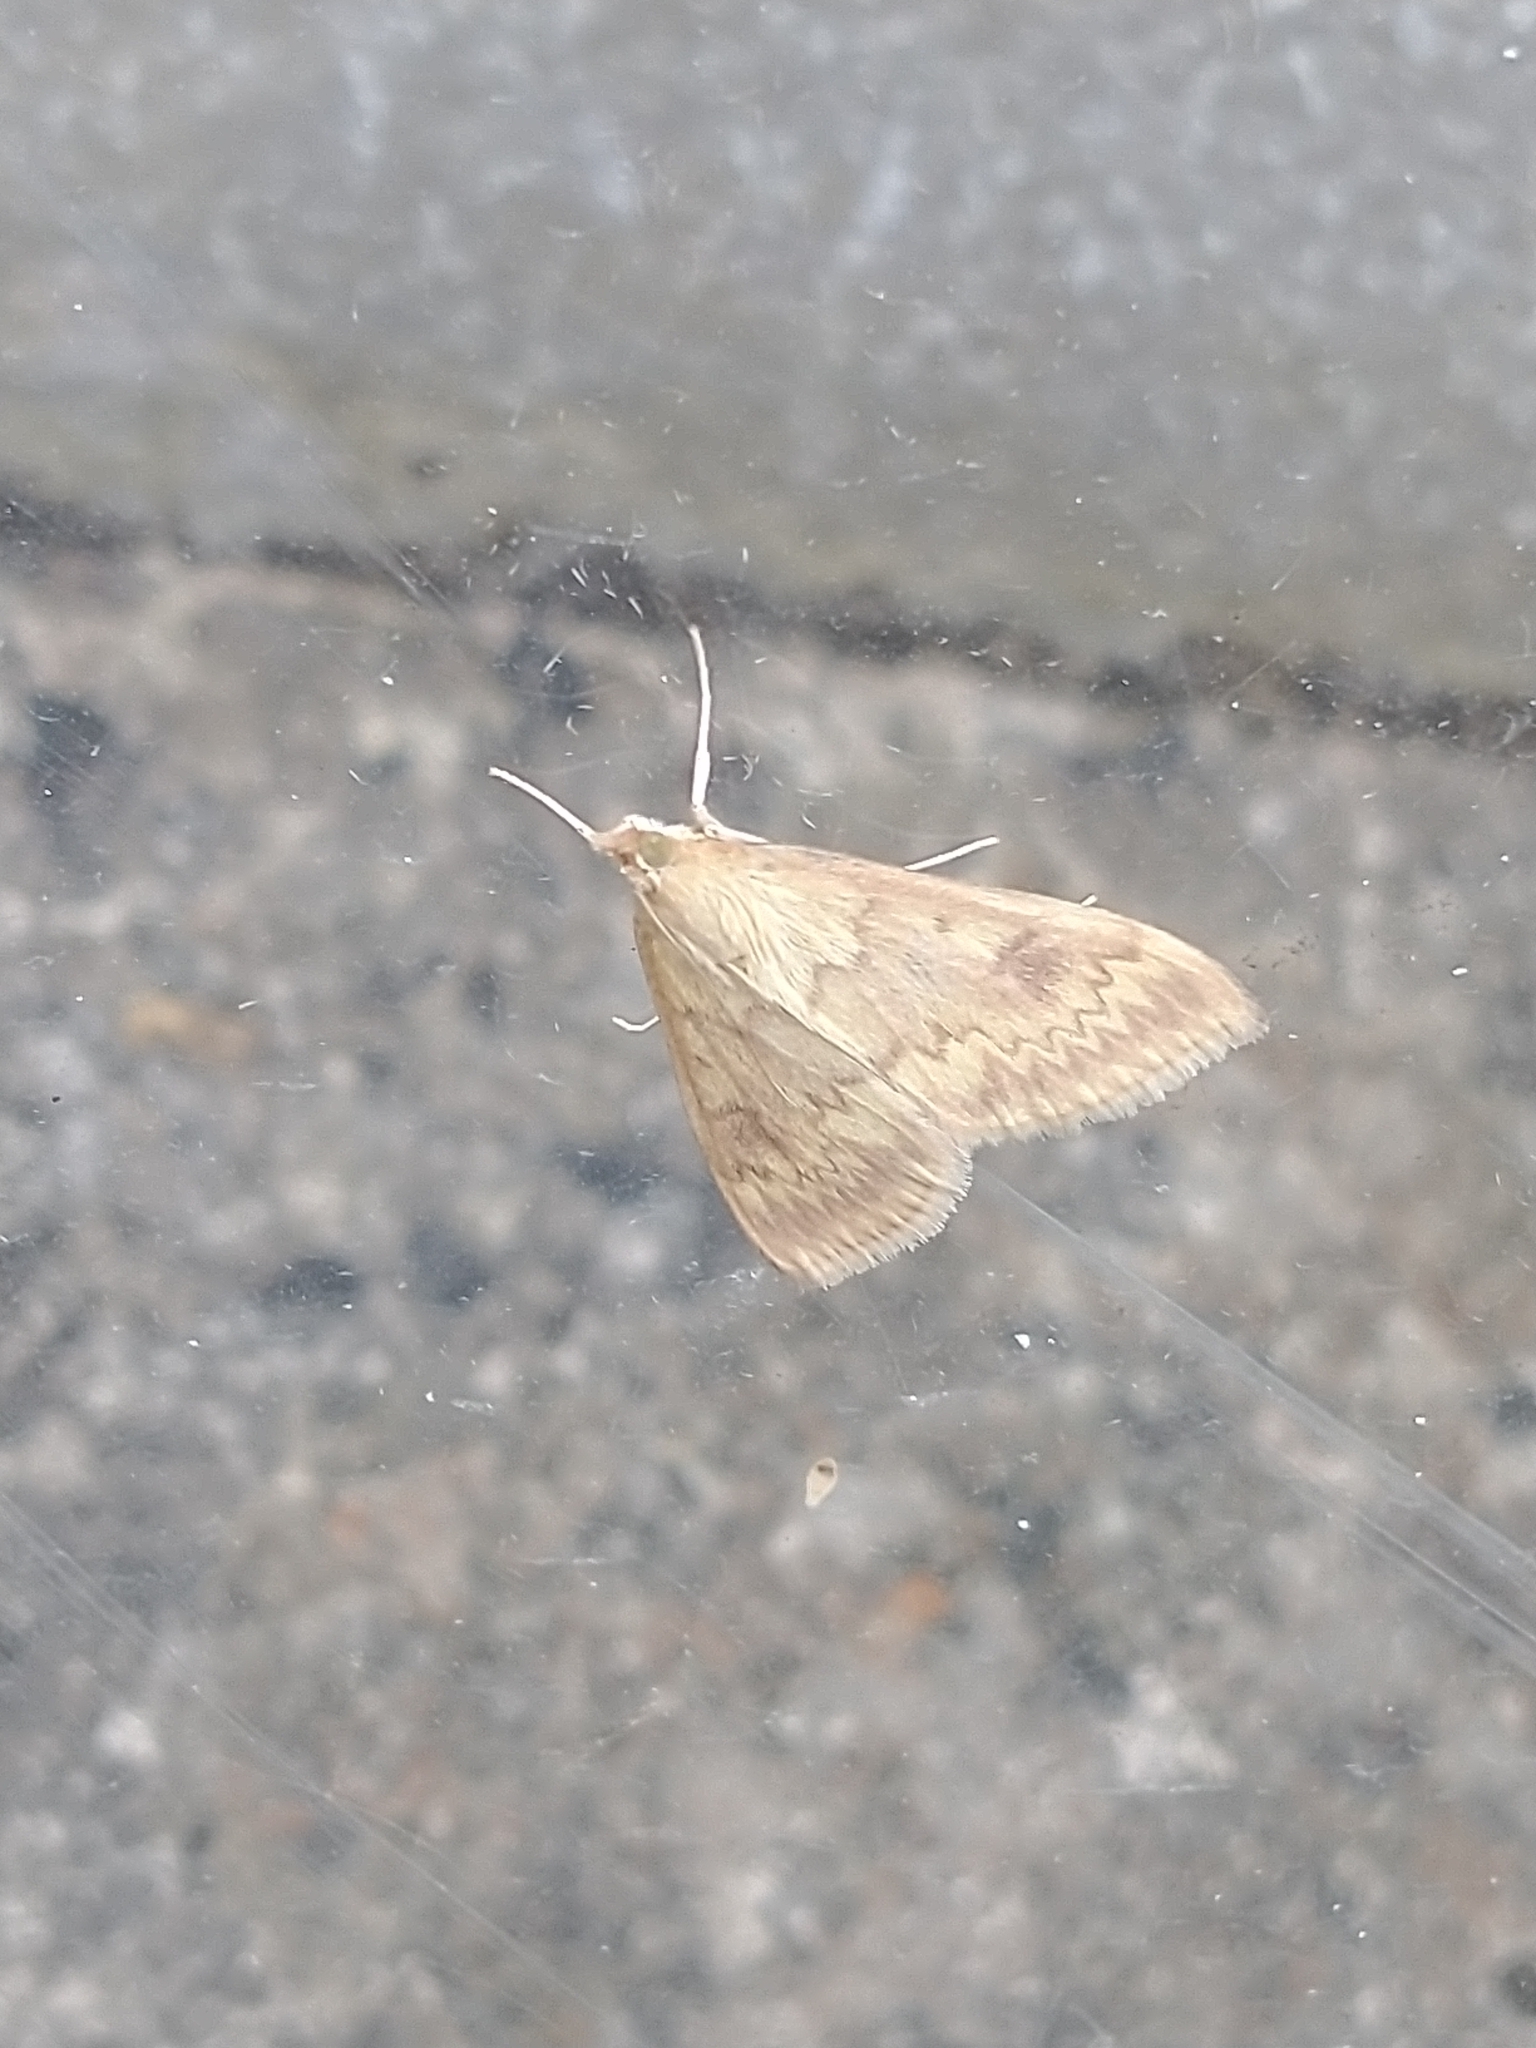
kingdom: Animalia
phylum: Arthropoda
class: Insecta
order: Lepidoptera
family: Crambidae
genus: Ostrinia
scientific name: Ostrinia nubilalis
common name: European corn borer
